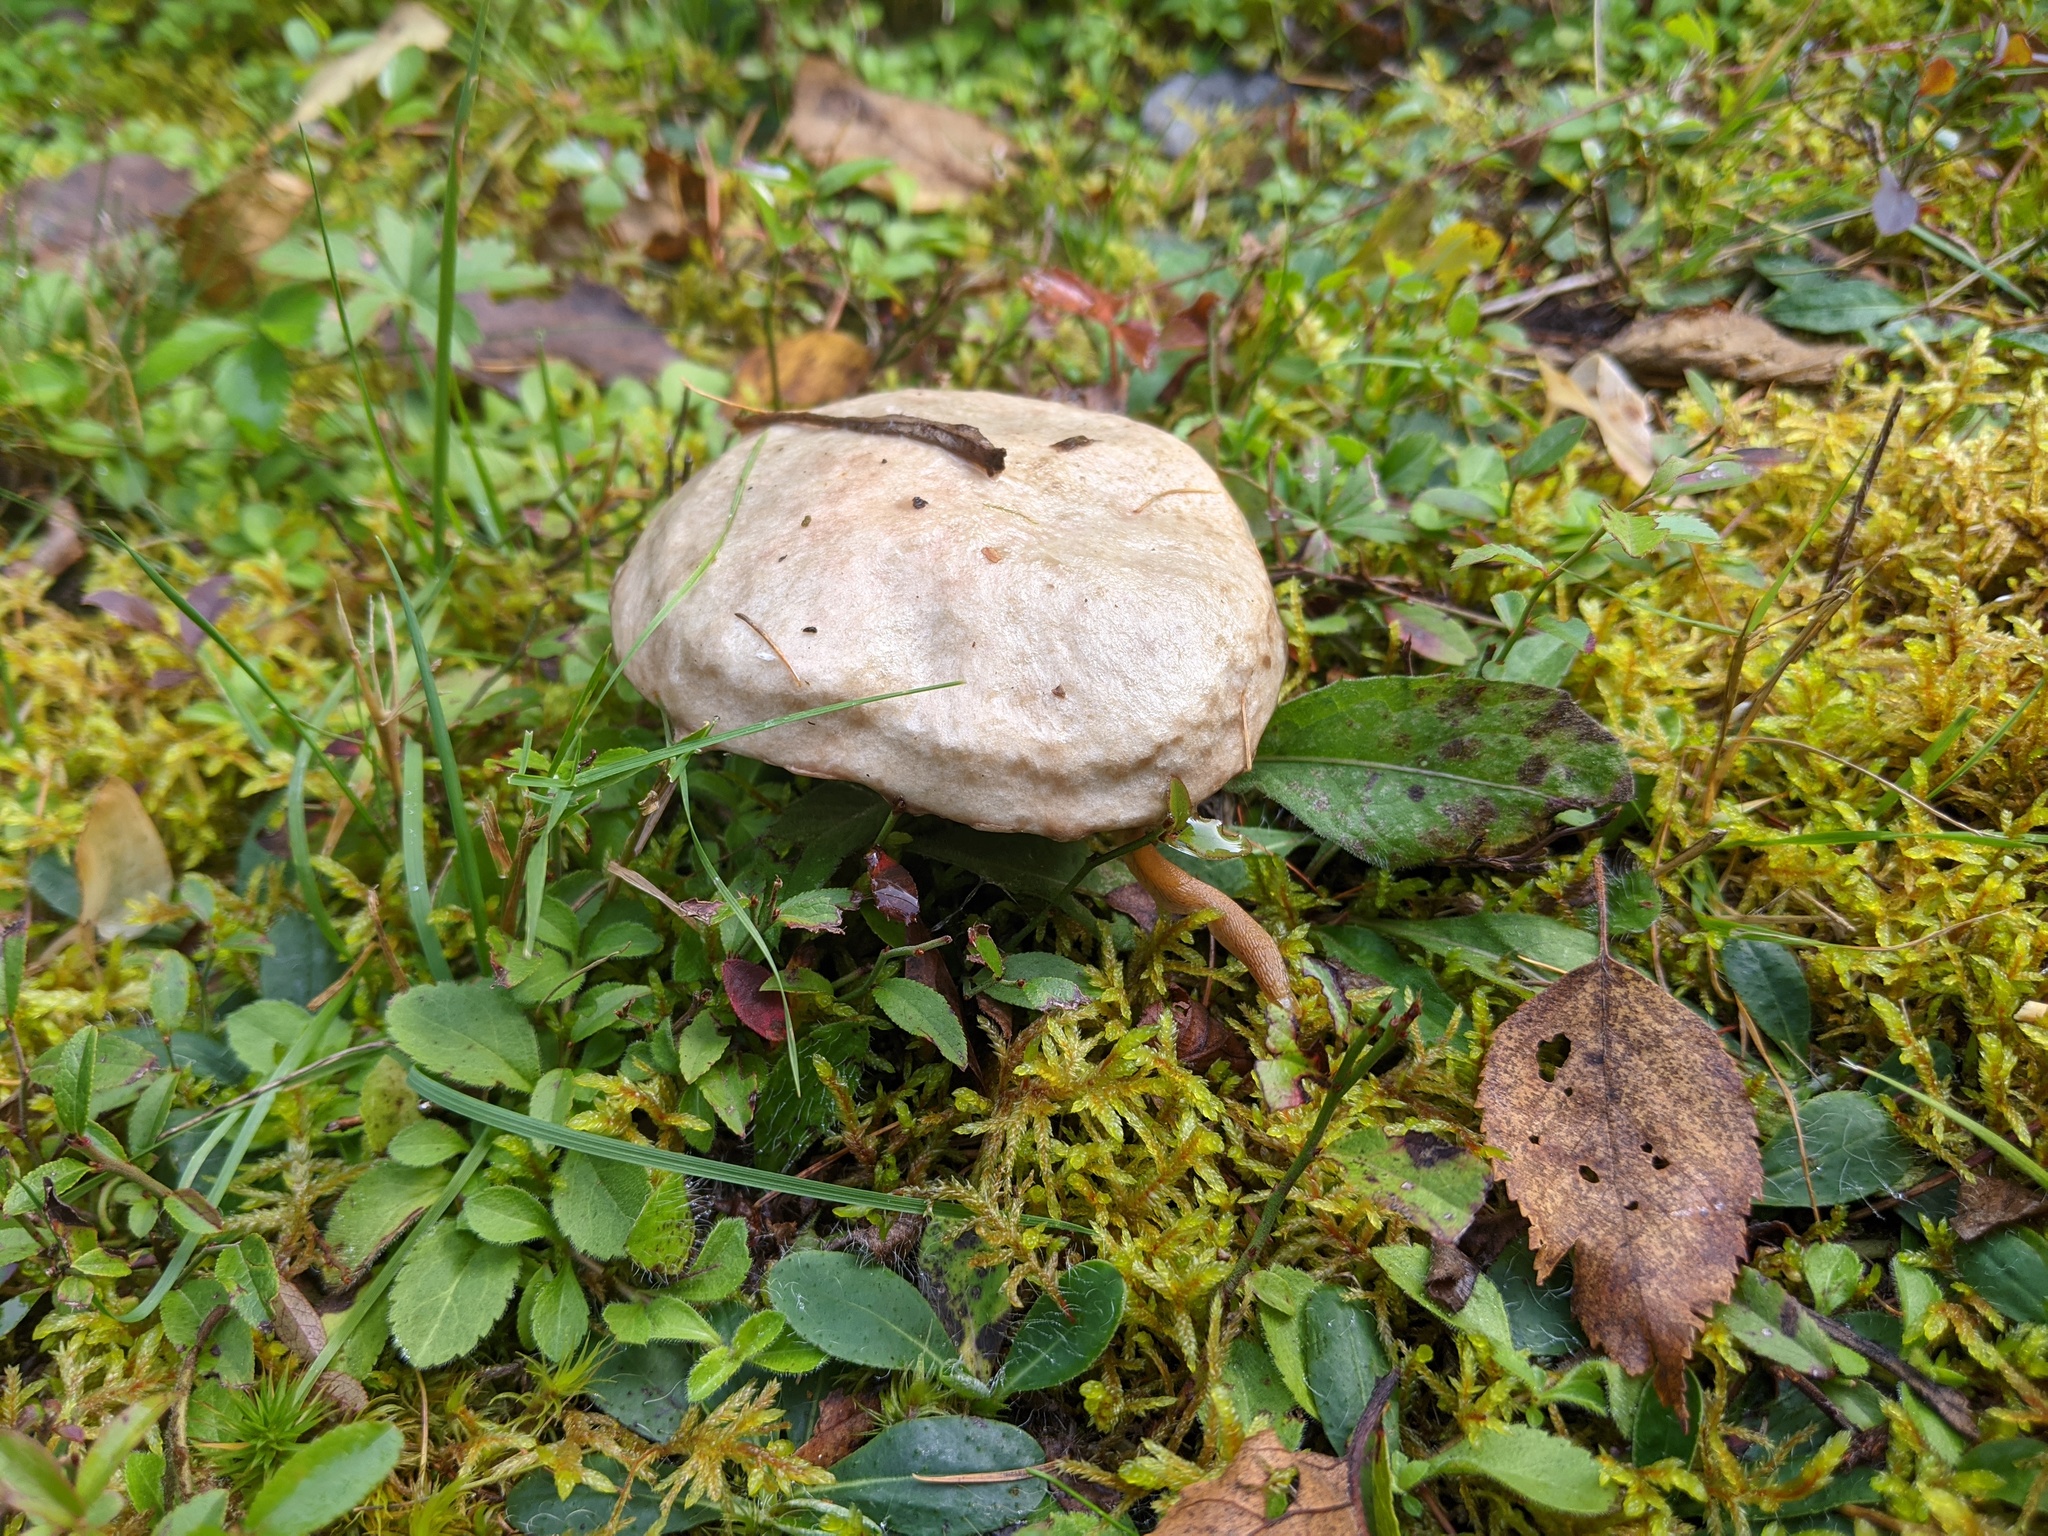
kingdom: Fungi
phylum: Basidiomycota
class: Agaricomycetes
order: Boletales
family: Suillaceae
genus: Suillus
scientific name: Suillus viscidus
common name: Sticky bolete
